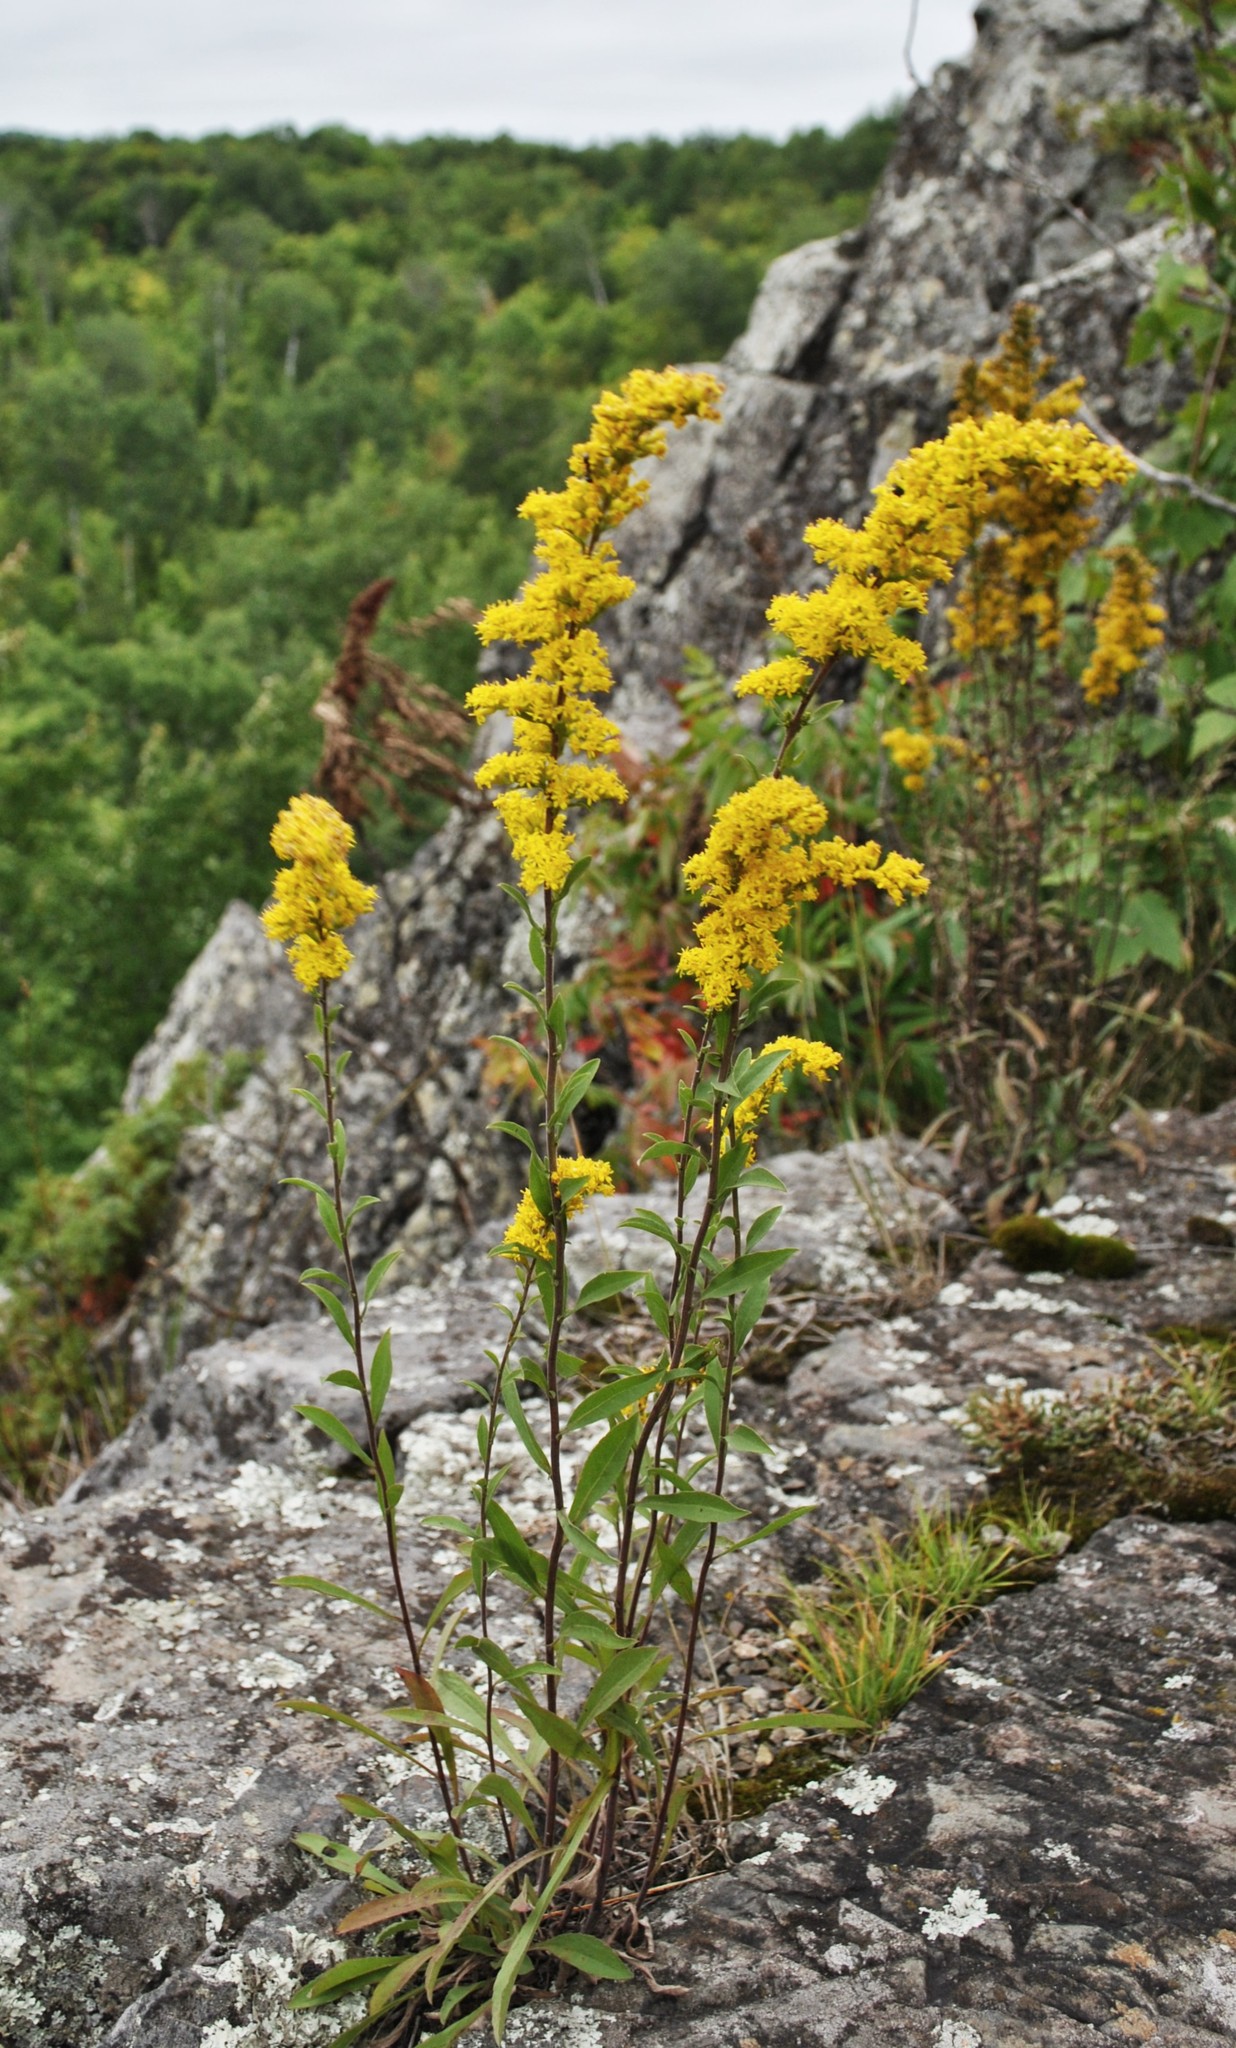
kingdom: Plantae
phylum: Tracheophyta
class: Magnoliopsida
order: Asterales
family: Asteraceae
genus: Solidago
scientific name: Solidago nemoralis
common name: Grey goldenrod
